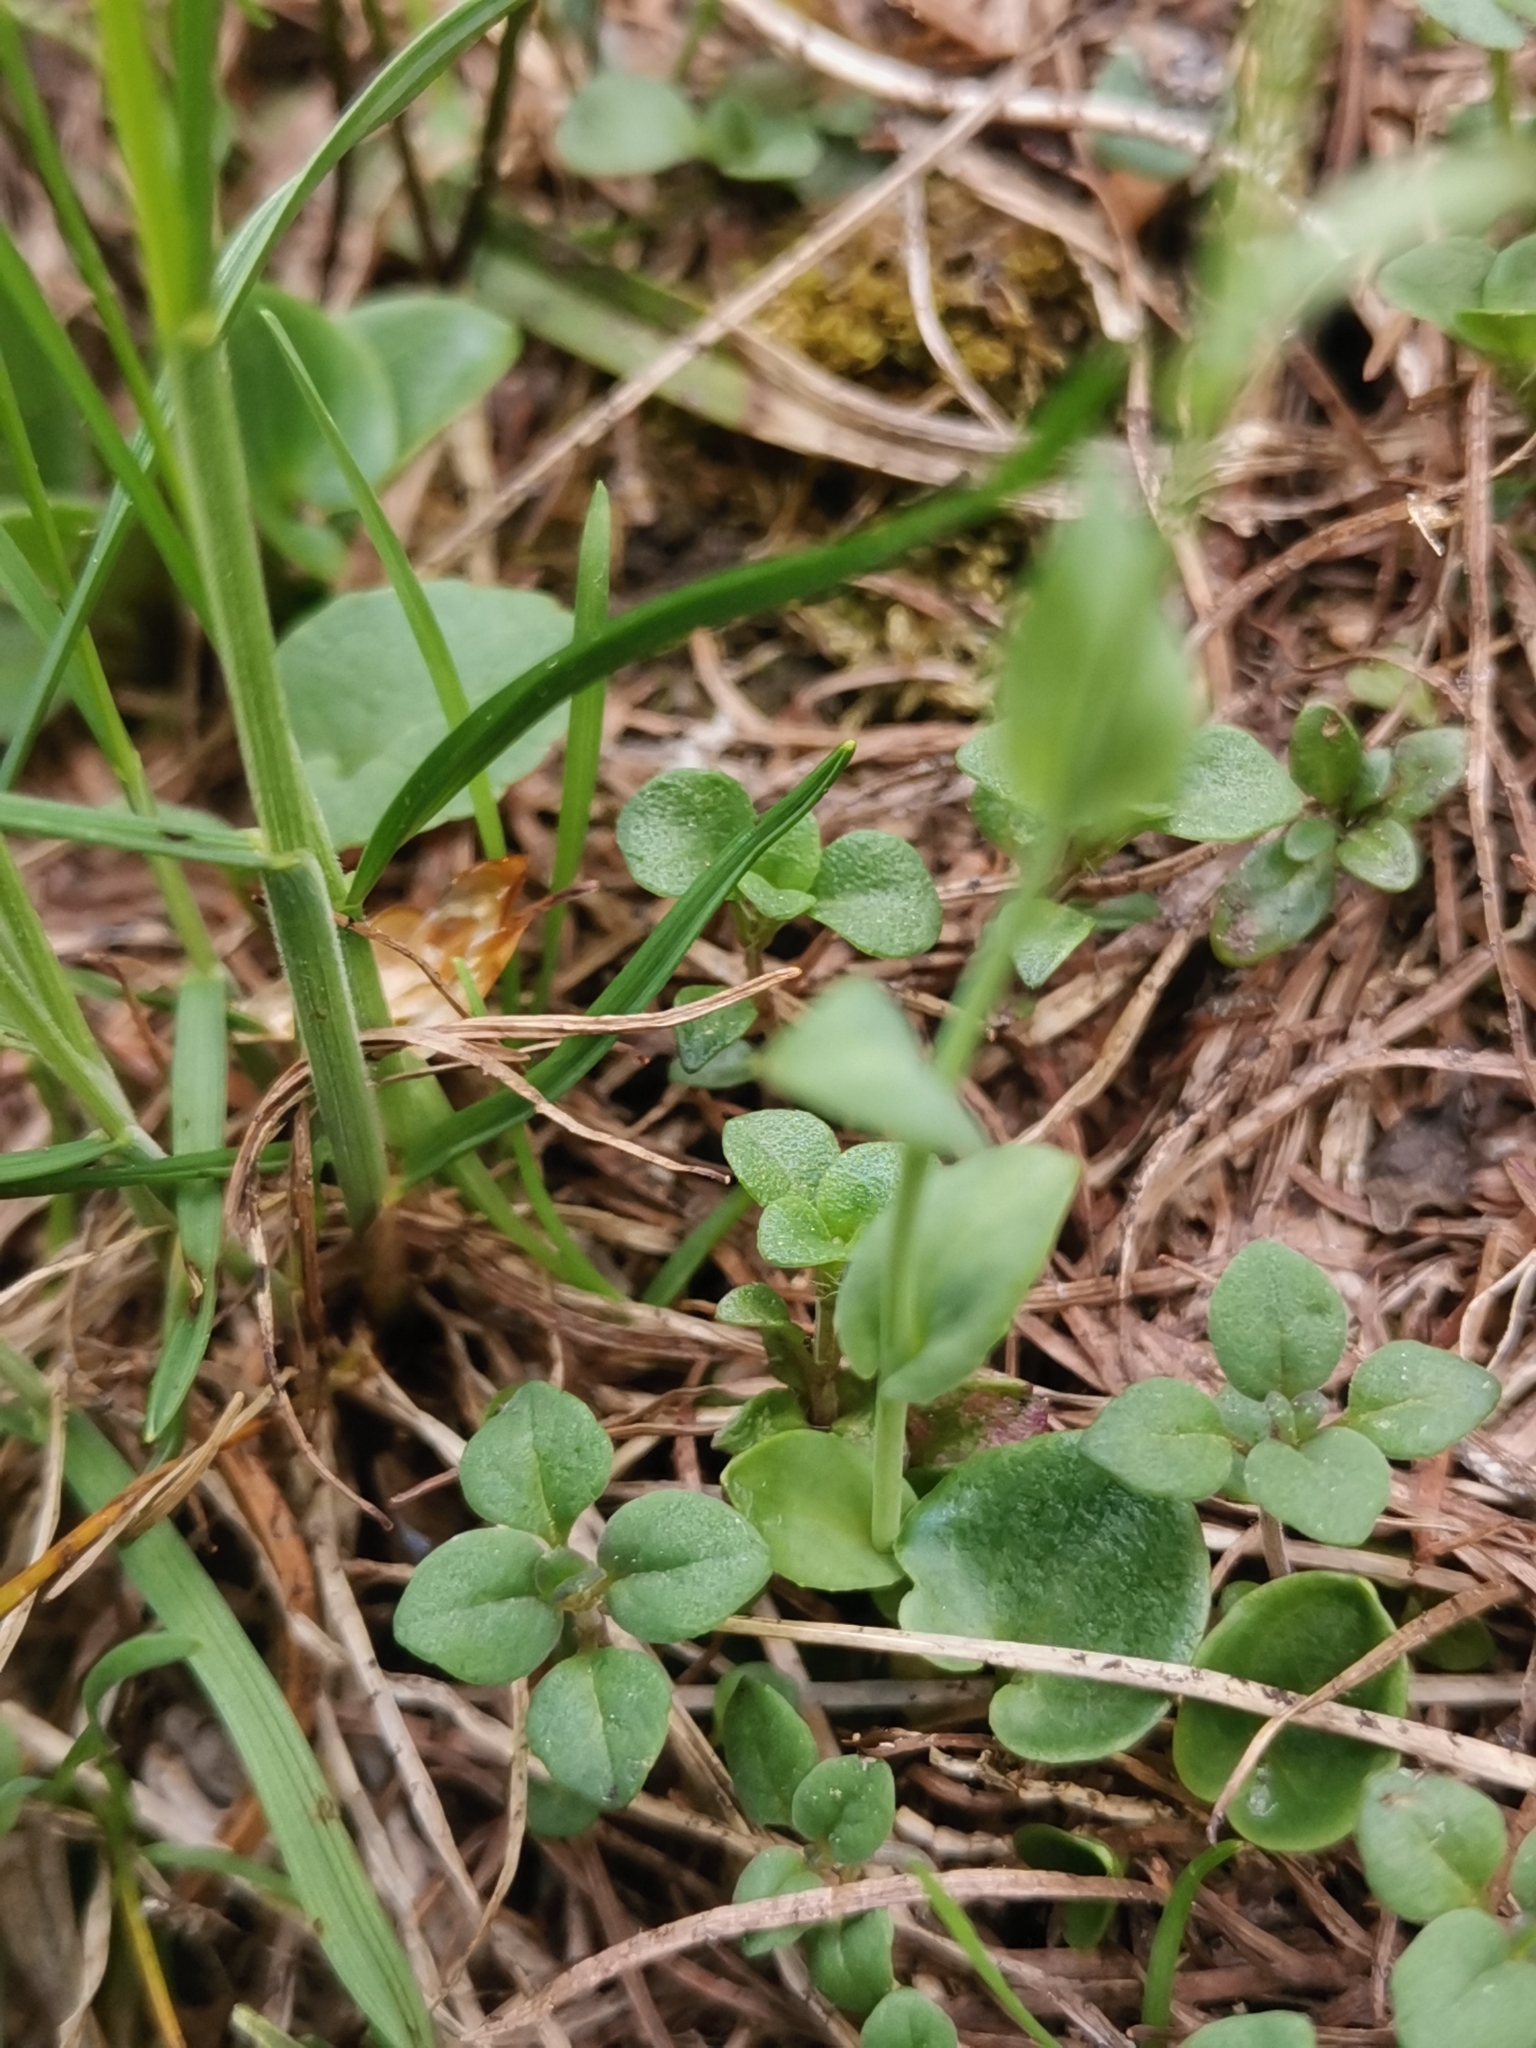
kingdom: Plantae
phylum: Tracheophyta
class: Magnoliopsida
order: Brassicales
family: Brassicaceae
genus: Noccaea
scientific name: Noccaea perfoliata
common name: Perfoliate pennycress
